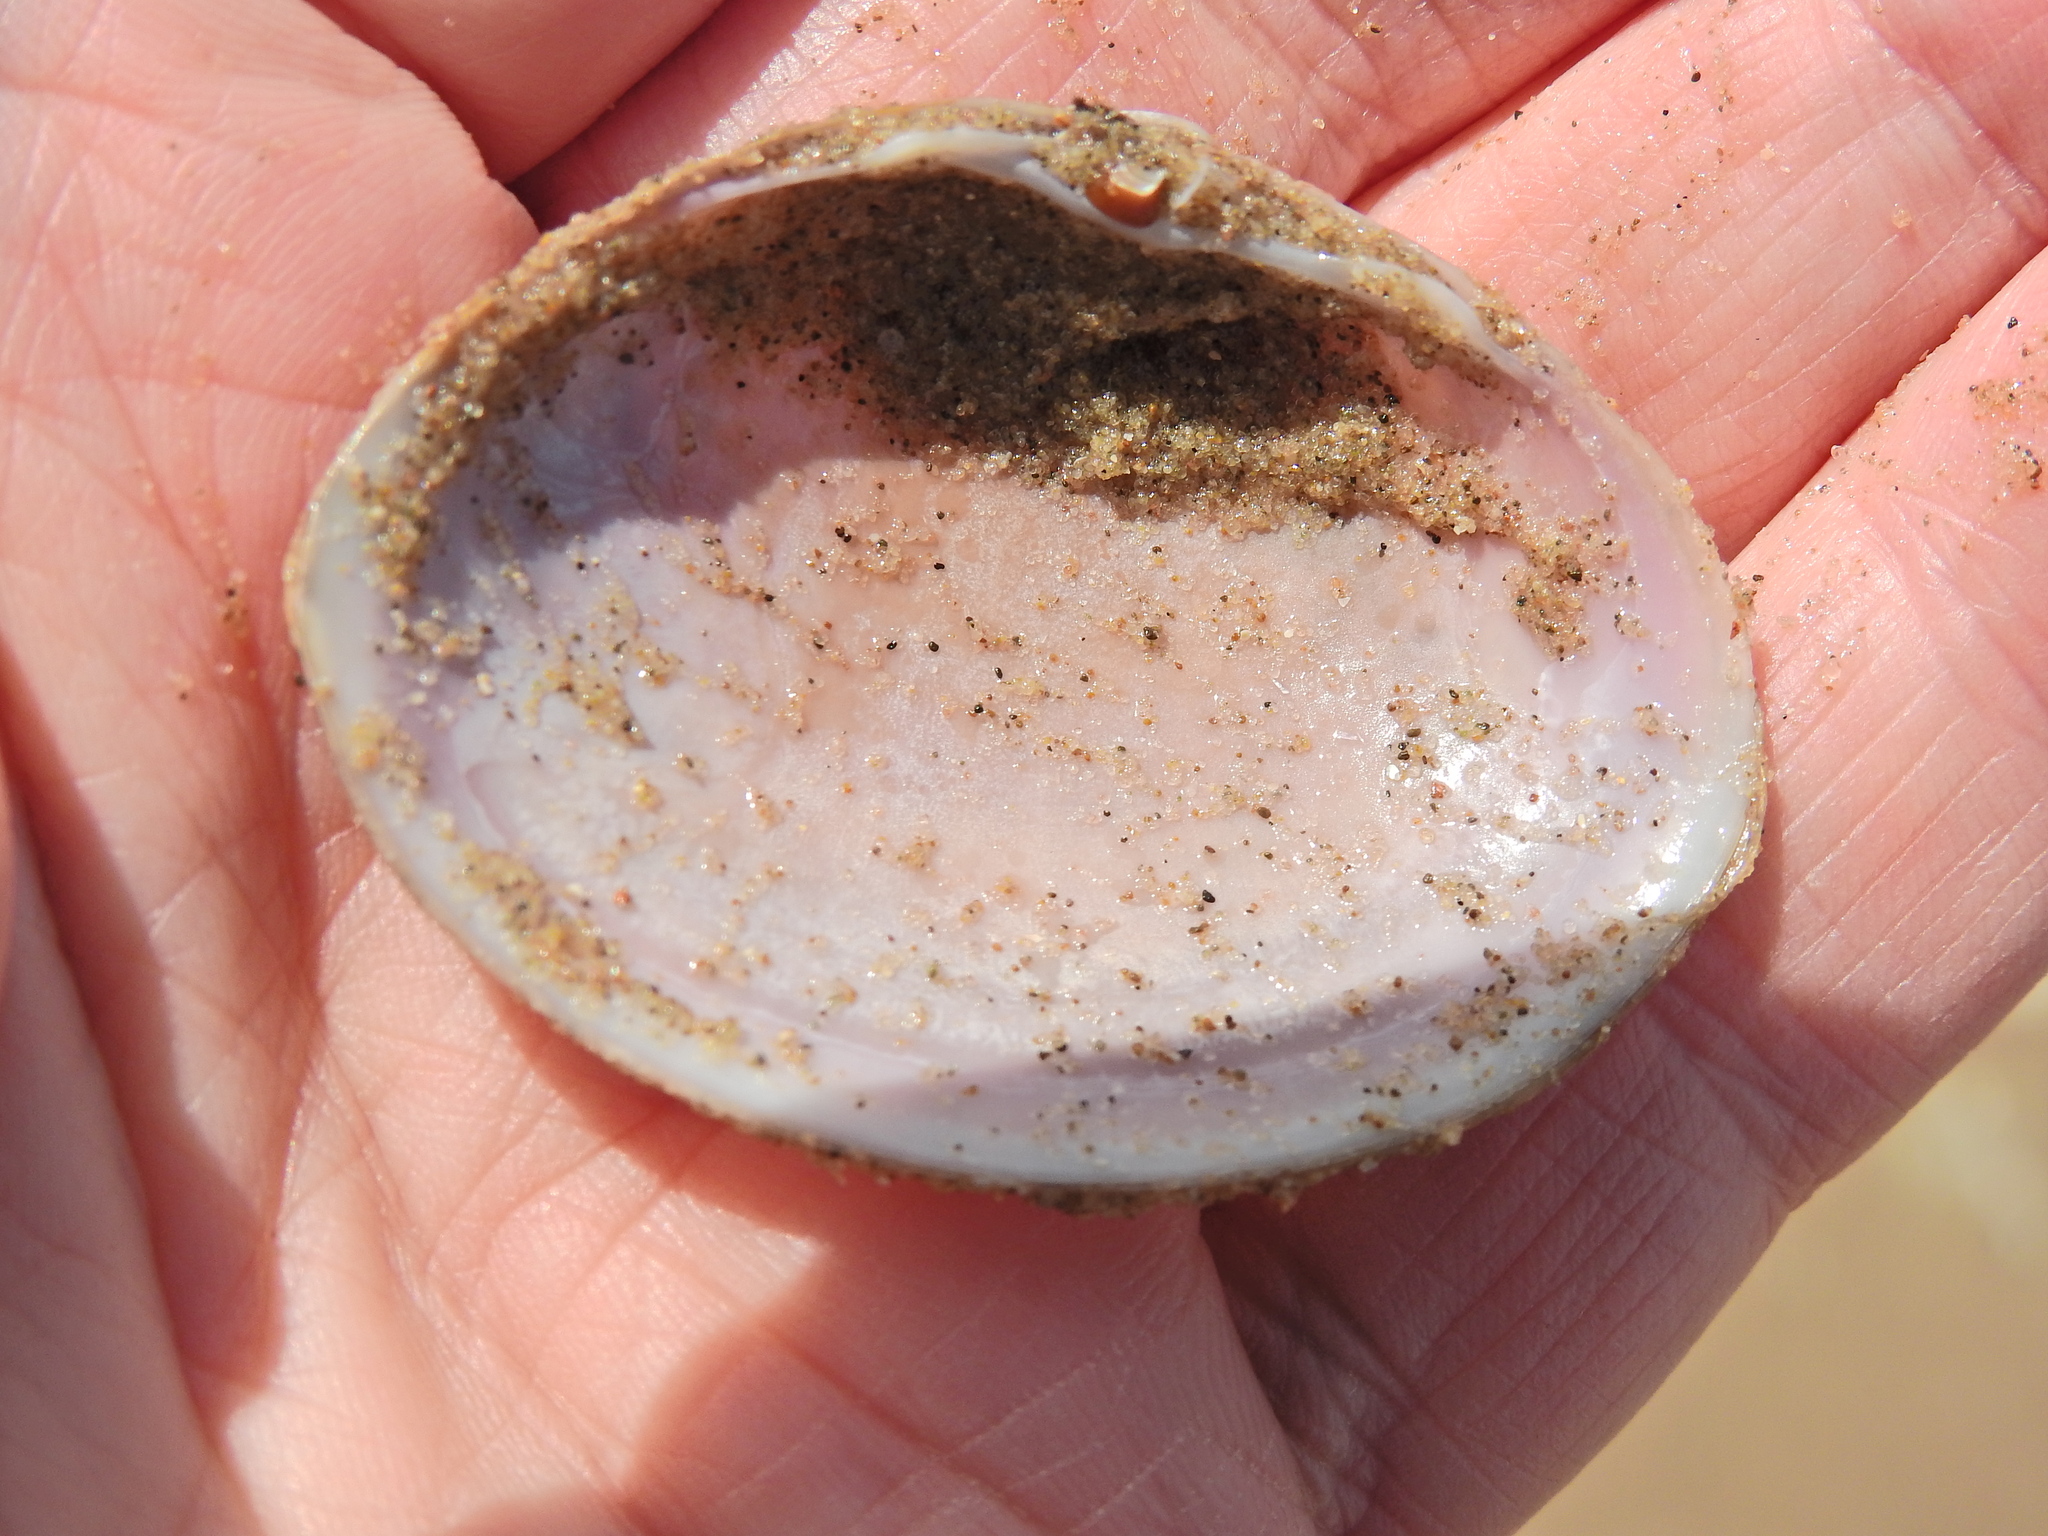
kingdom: Animalia
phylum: Mollusca
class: Bivalvia
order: Venerida
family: Mactridae
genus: Mactra
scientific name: Mactra stultorum
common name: Rayed trough shell
